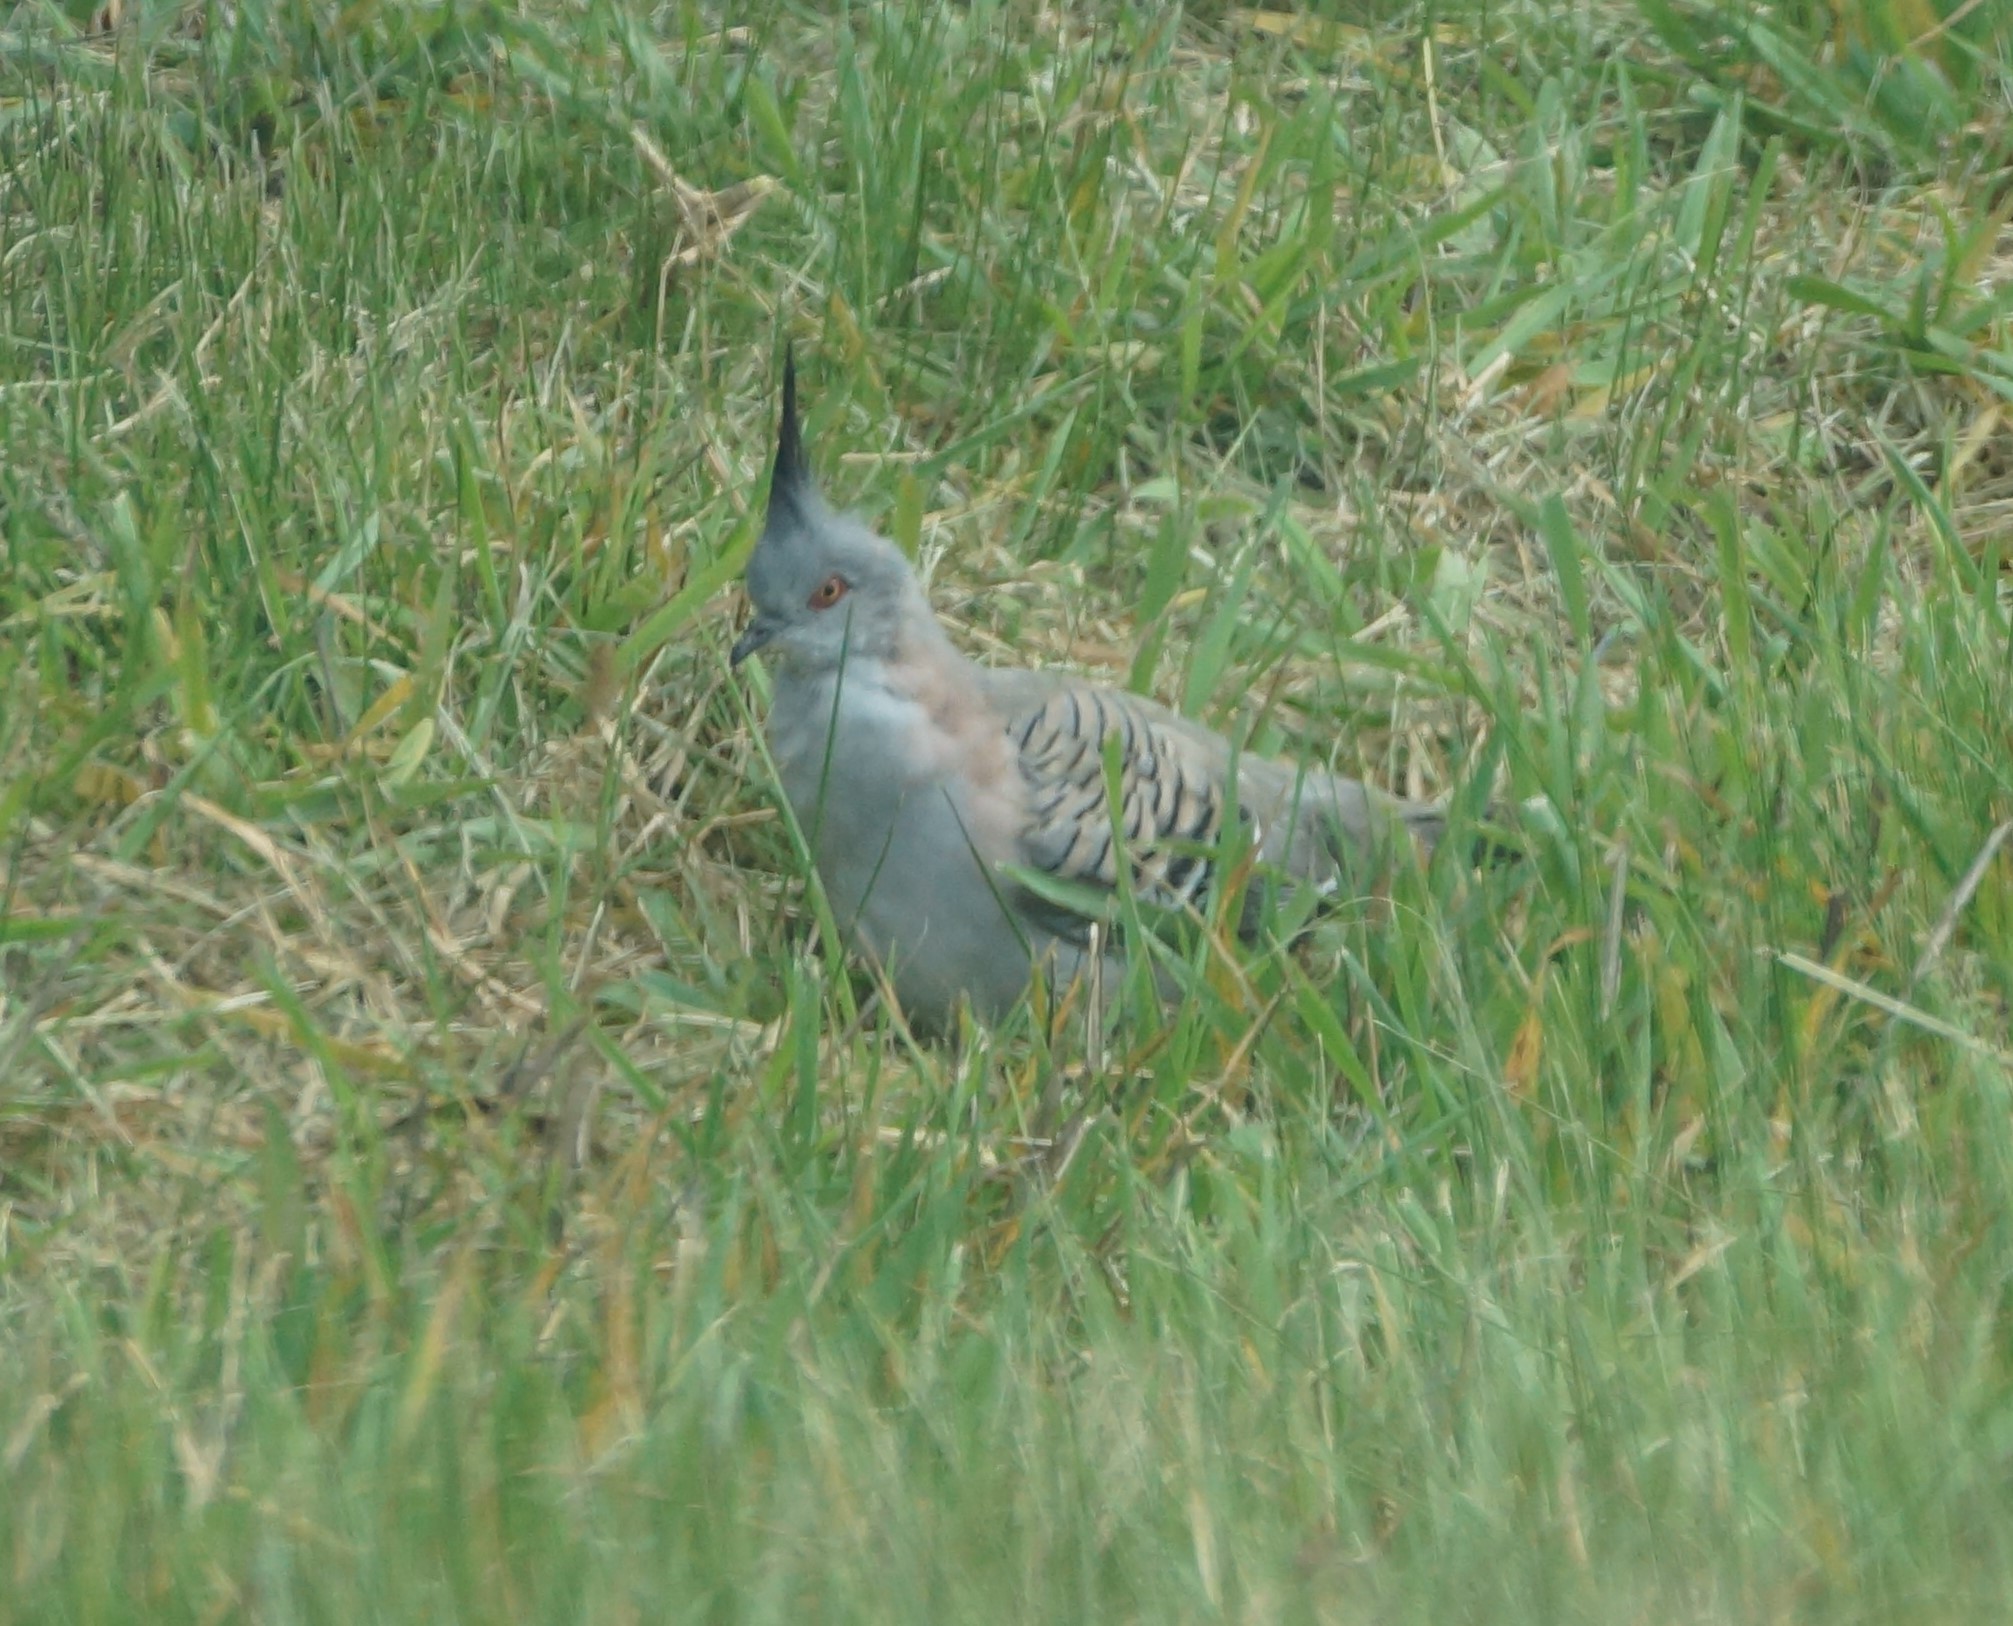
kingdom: Animalia
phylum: Chordata
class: Aves
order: Columbiformes
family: Columbidae
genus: Ocyphaps
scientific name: Ocyphaps lophotes
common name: Crested pigeon
